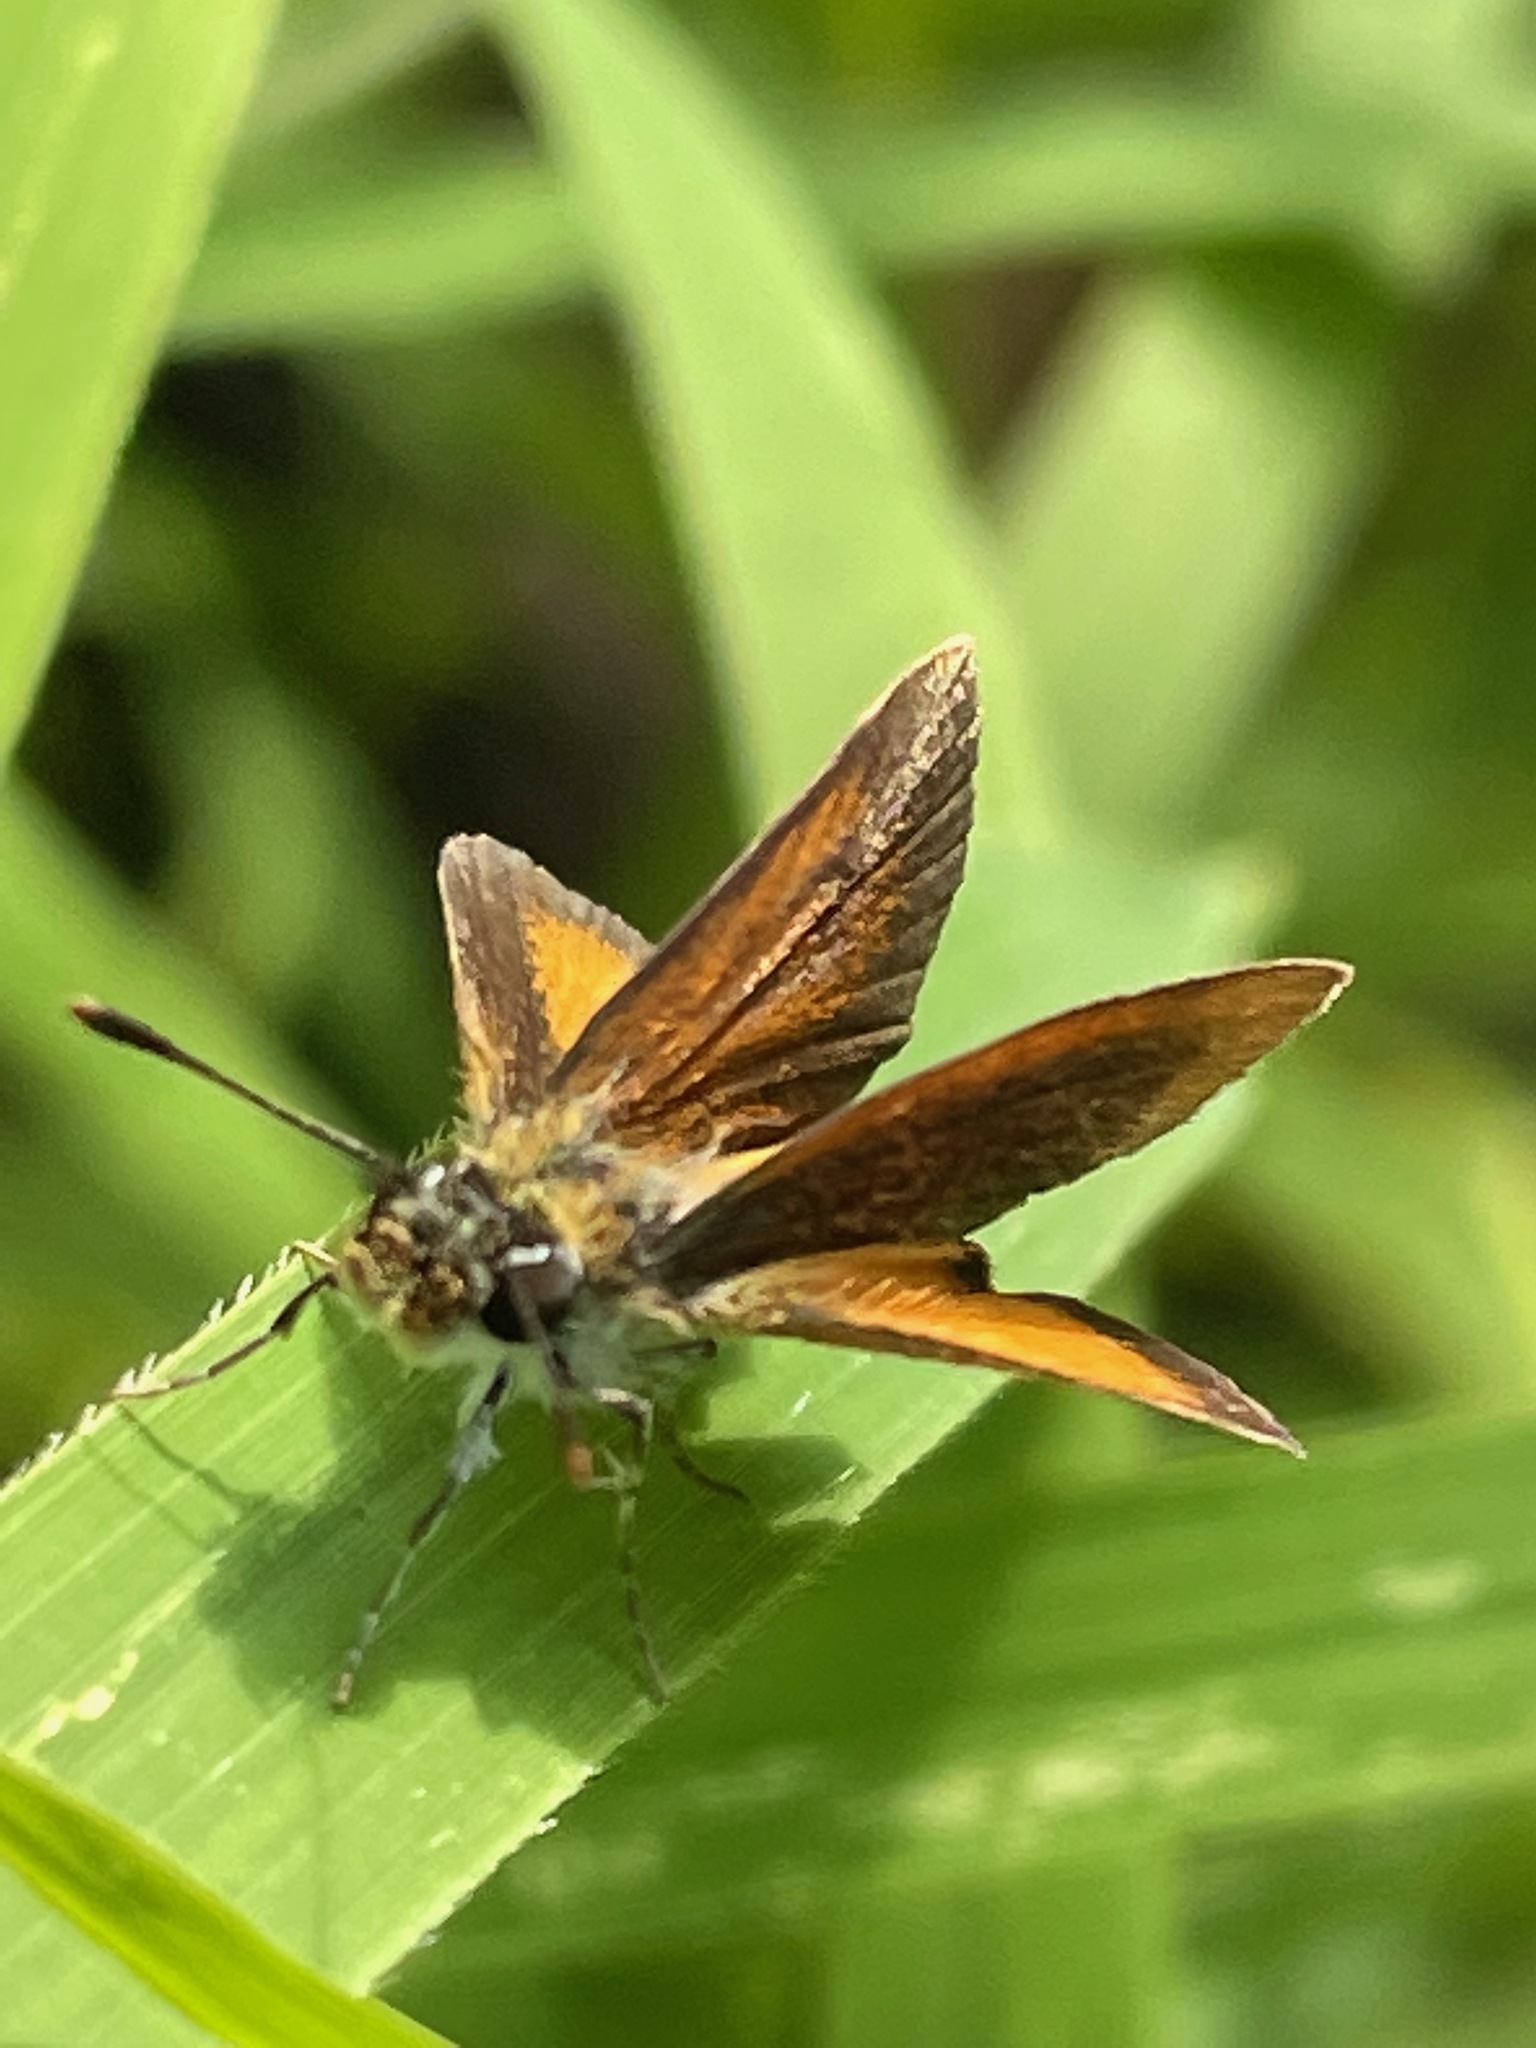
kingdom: Animalia
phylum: Arthropoda
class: Insecta
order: Lepidoptera
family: Hesperiidae
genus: Ancyloxypha
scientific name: Ancyloxypha numitor
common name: Least skipper
